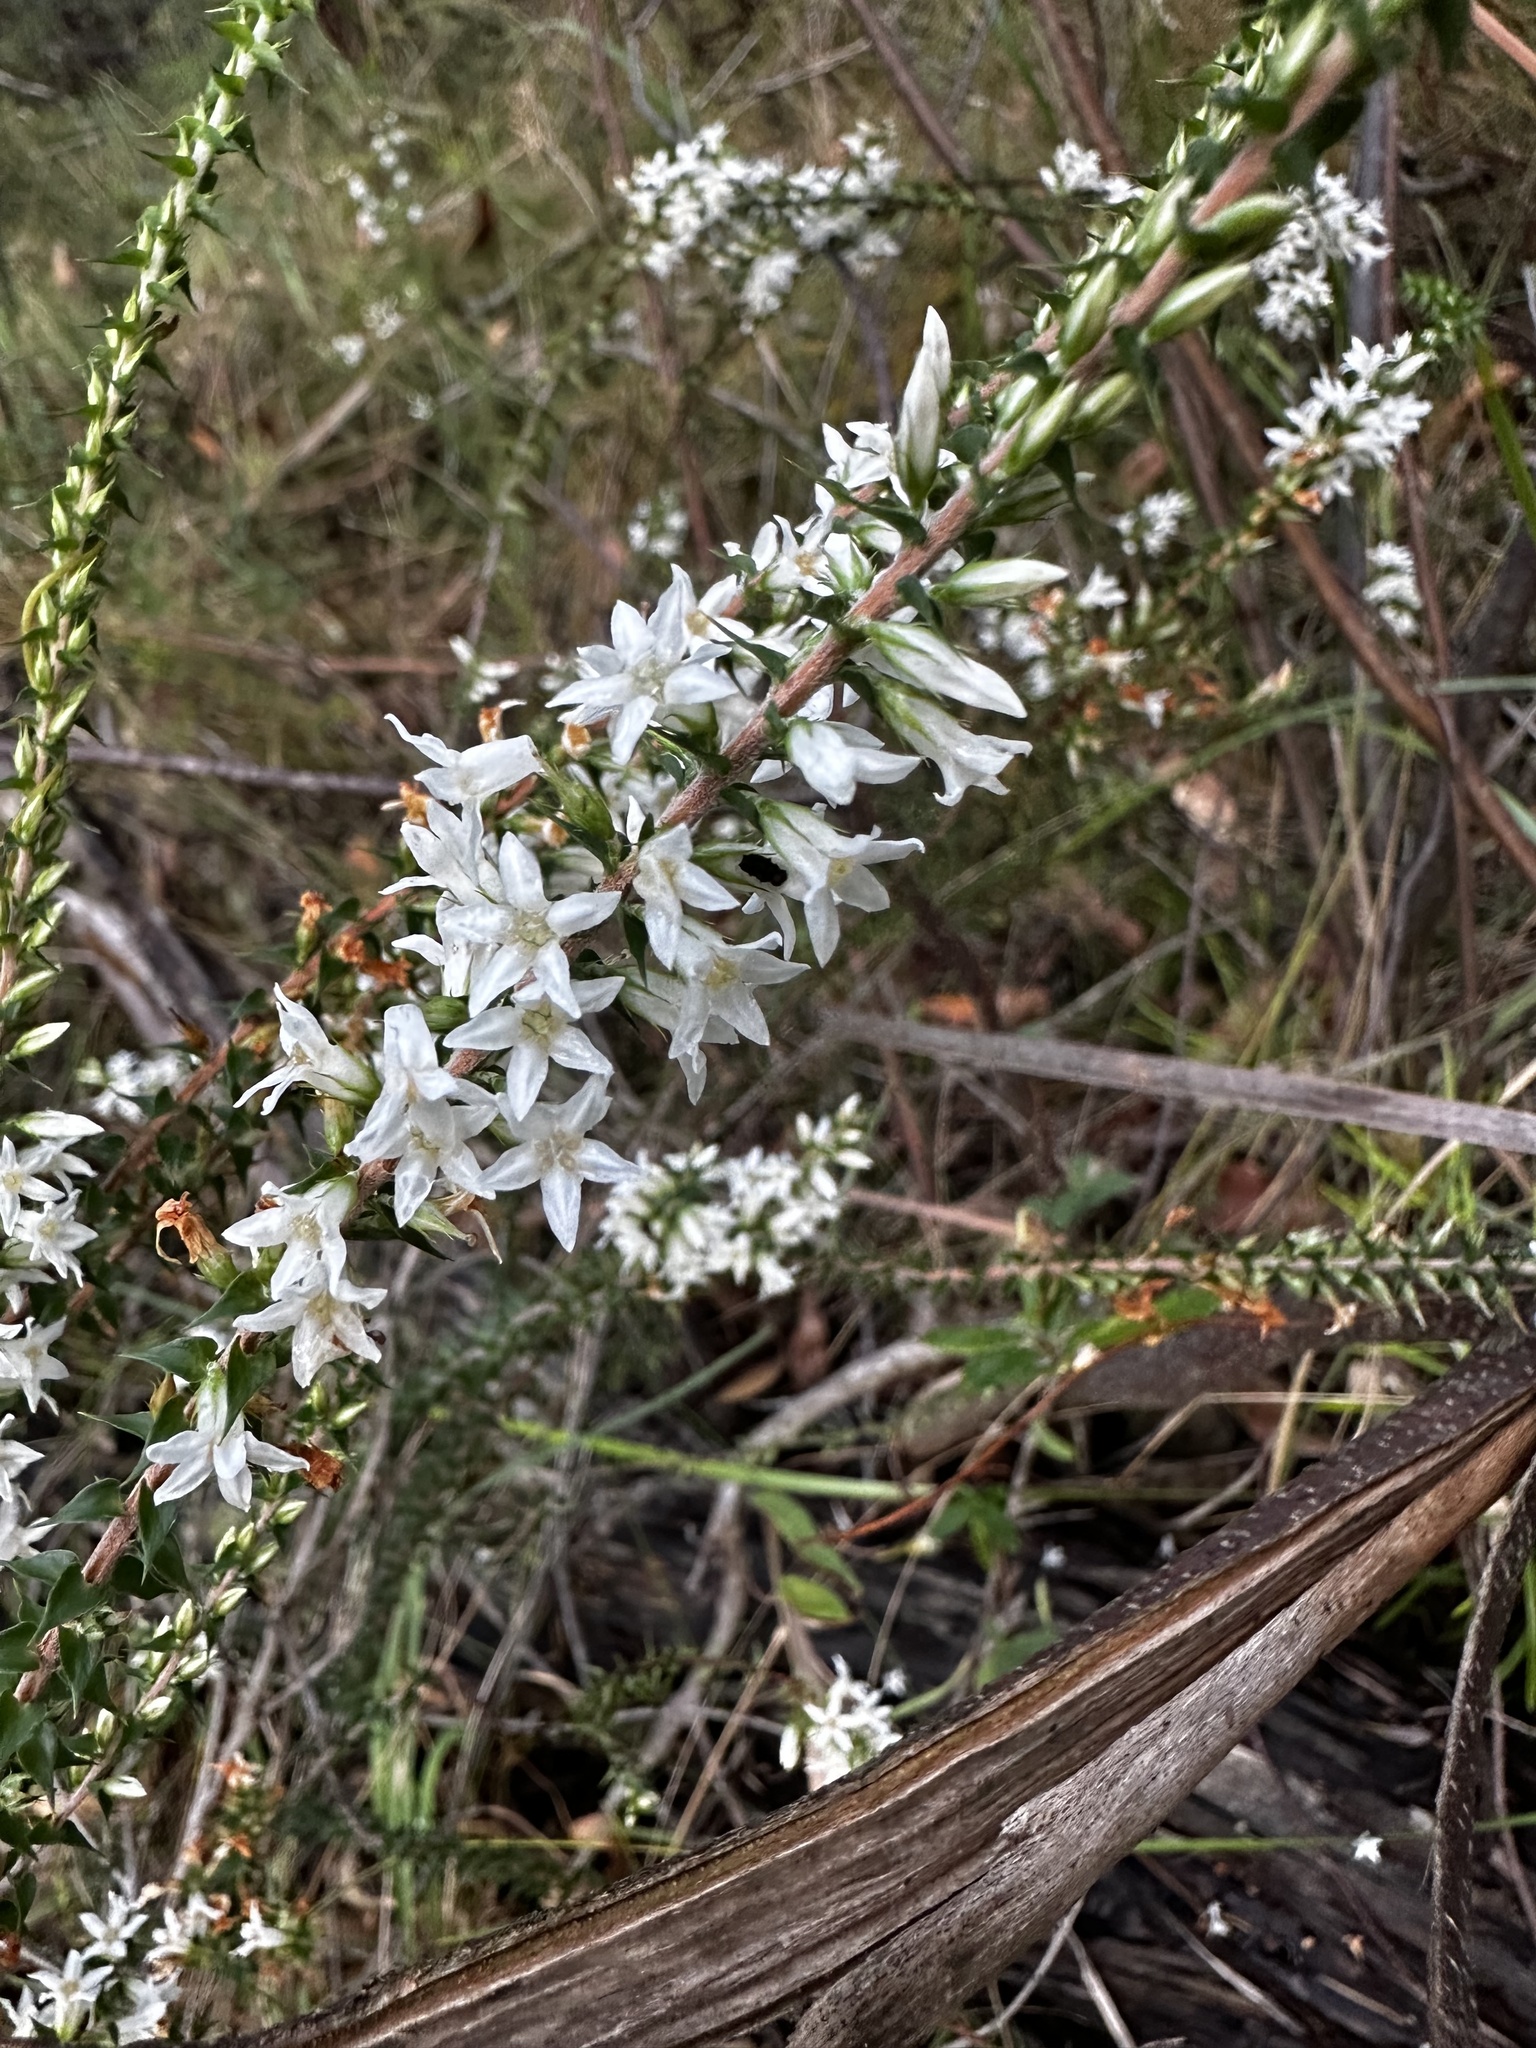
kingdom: Plantae
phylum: Tracheophyta
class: Magnoliopsida
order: Ericales
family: Ericaceae
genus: Epacris
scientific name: Epacris pulchella
